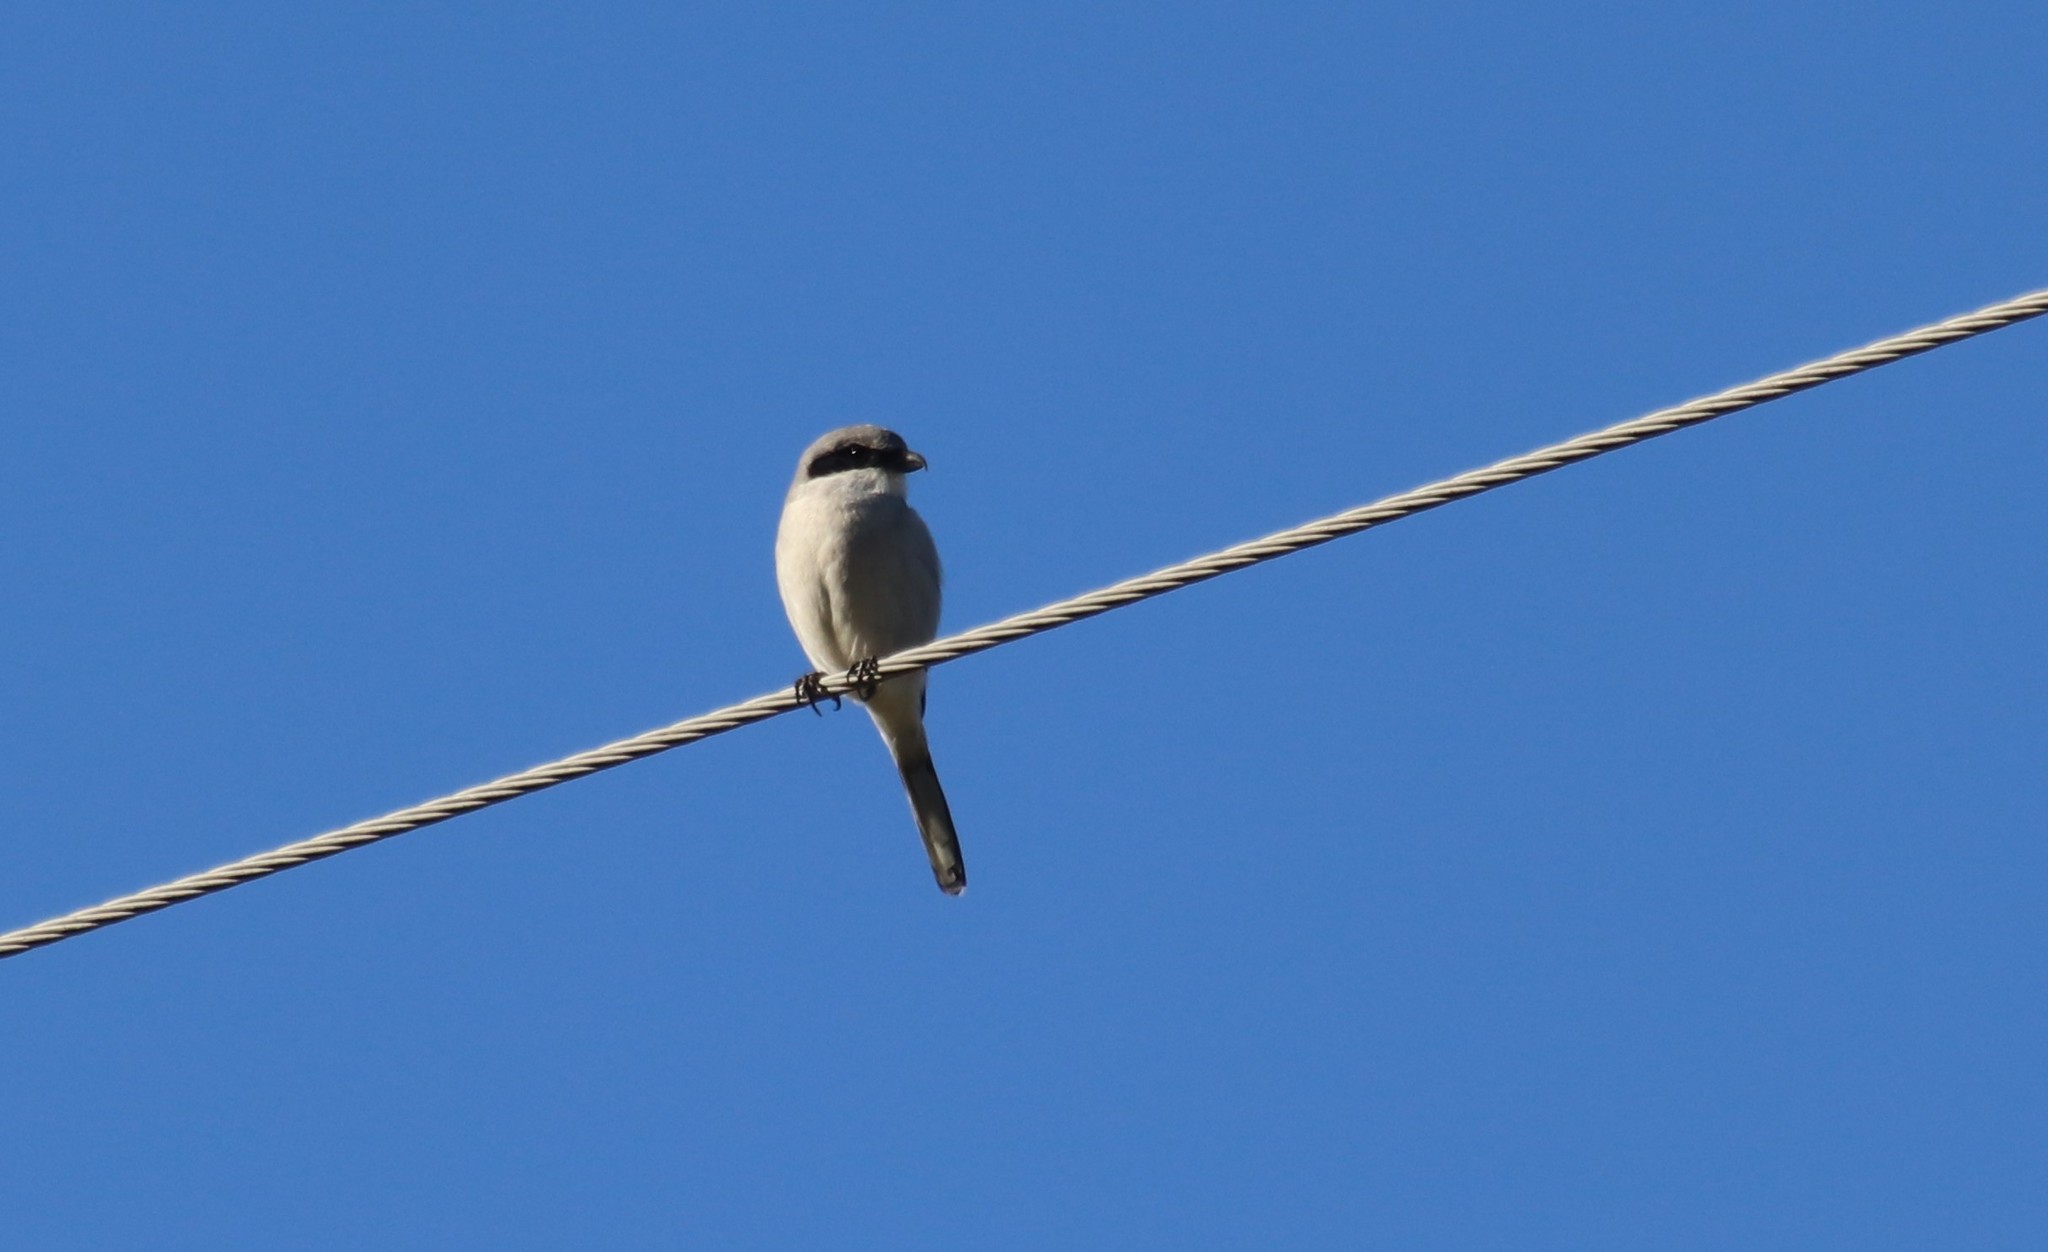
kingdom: Animalia
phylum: Chordata
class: Aves
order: Passeriformes
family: Laniidae
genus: Lanius
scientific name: Lanius ludovicianus
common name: Loggerhead shrike
